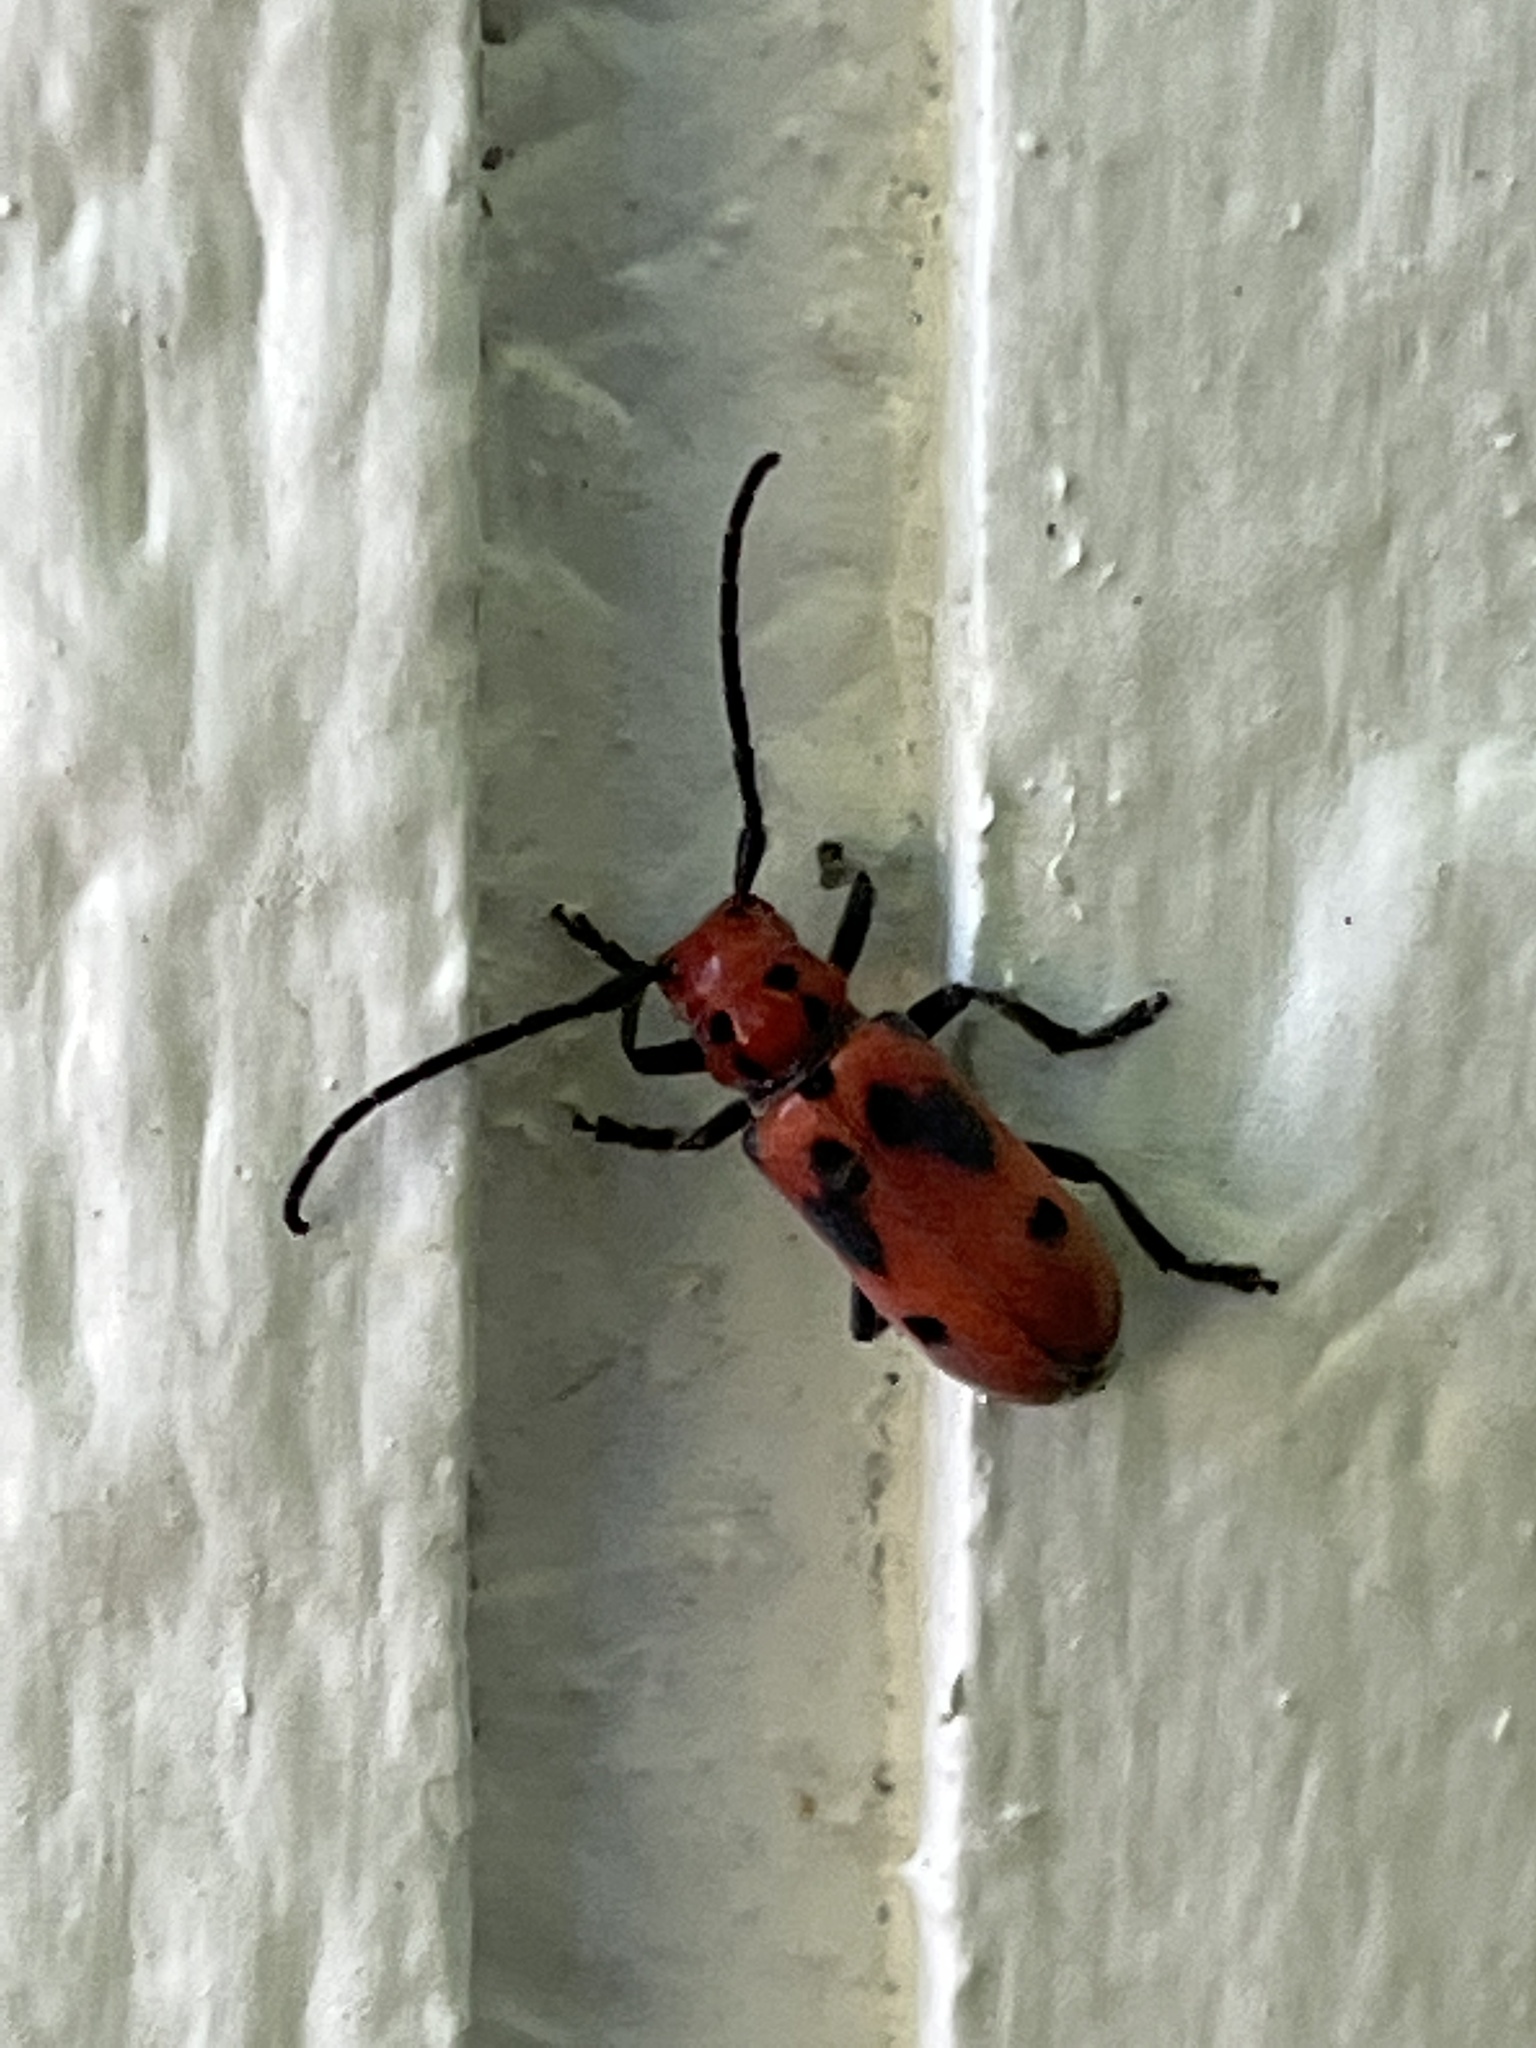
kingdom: Animalia
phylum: Arthropoda
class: Insecta
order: Coleoptera
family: Cerambycidae
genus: Tetraopes
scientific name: Tetraopes tetrophthalmus
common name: Red milkweed beetle
